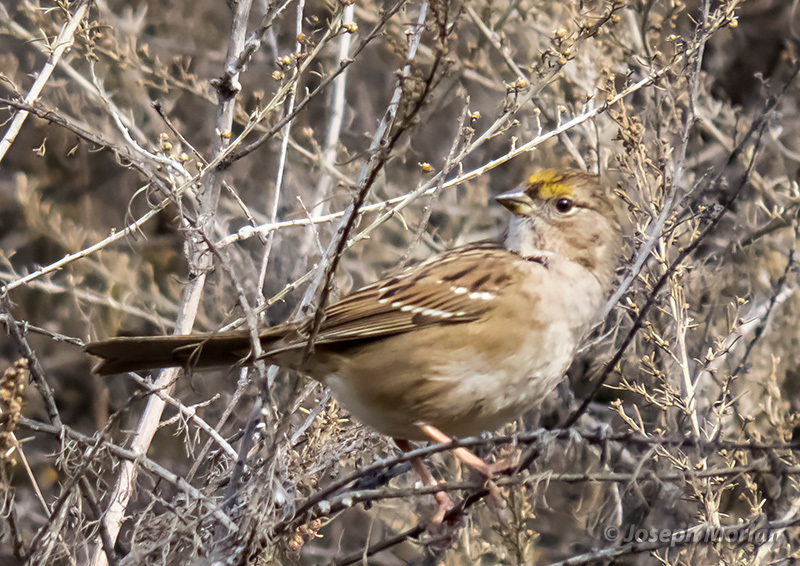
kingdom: Animalia
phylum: Chordata
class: Aves
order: Passeriformes
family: Passerellidae
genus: Zonotrichia
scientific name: Zonotrichia atricapilla
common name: Golden-crowned sparrow
